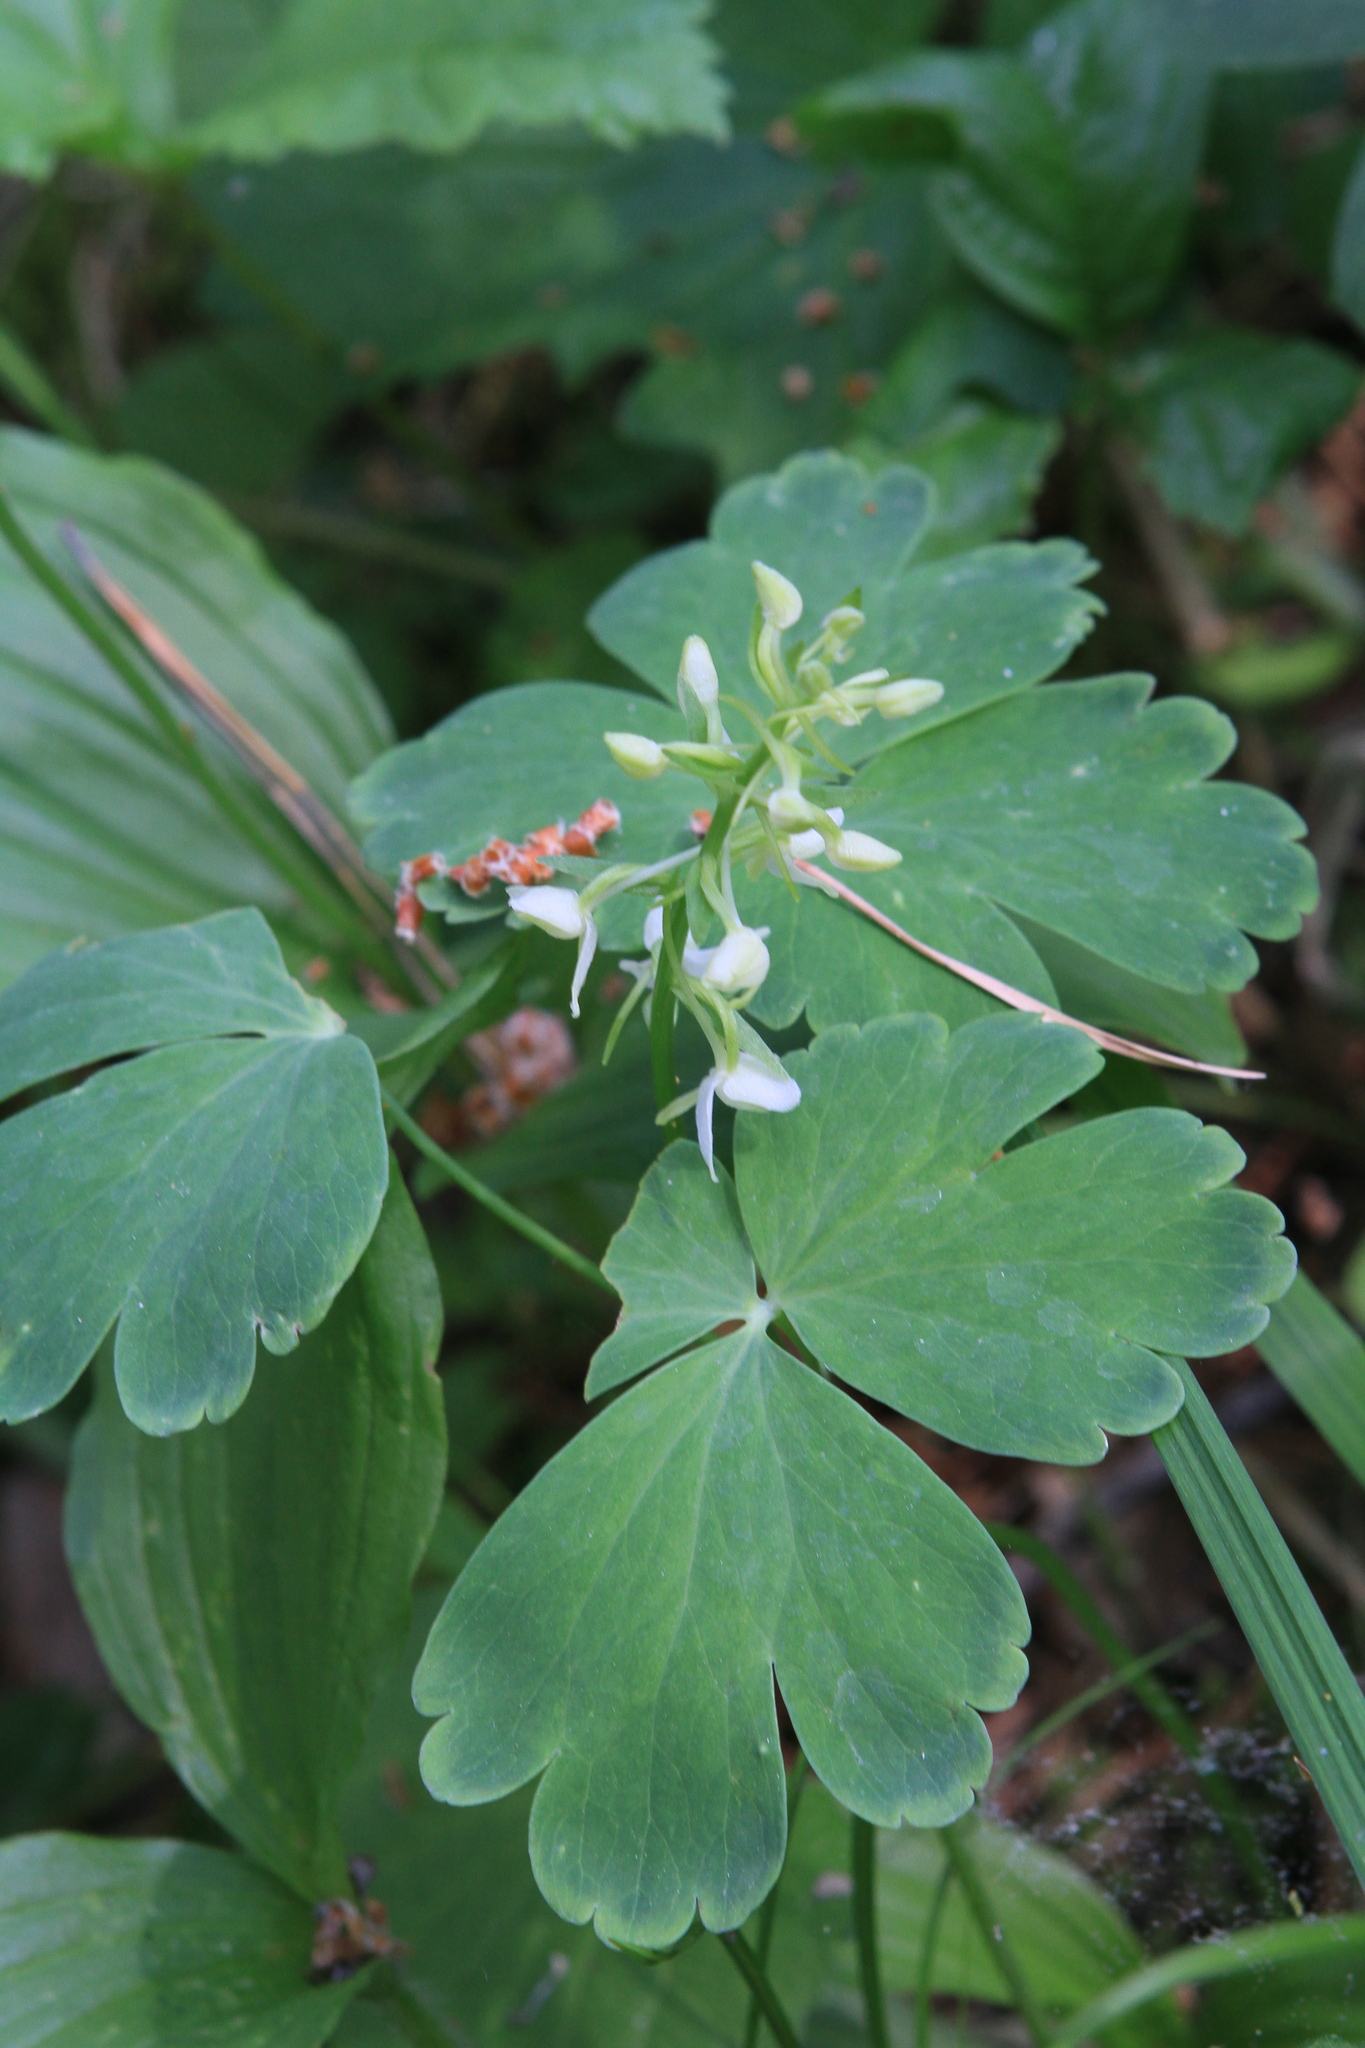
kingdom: Plantae
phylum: Tracheophyta
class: Liliopsida
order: Asparagales
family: Orchidaceae
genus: Platanthera
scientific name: Platanthera bifolia
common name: Lesser butterfly-orchid
